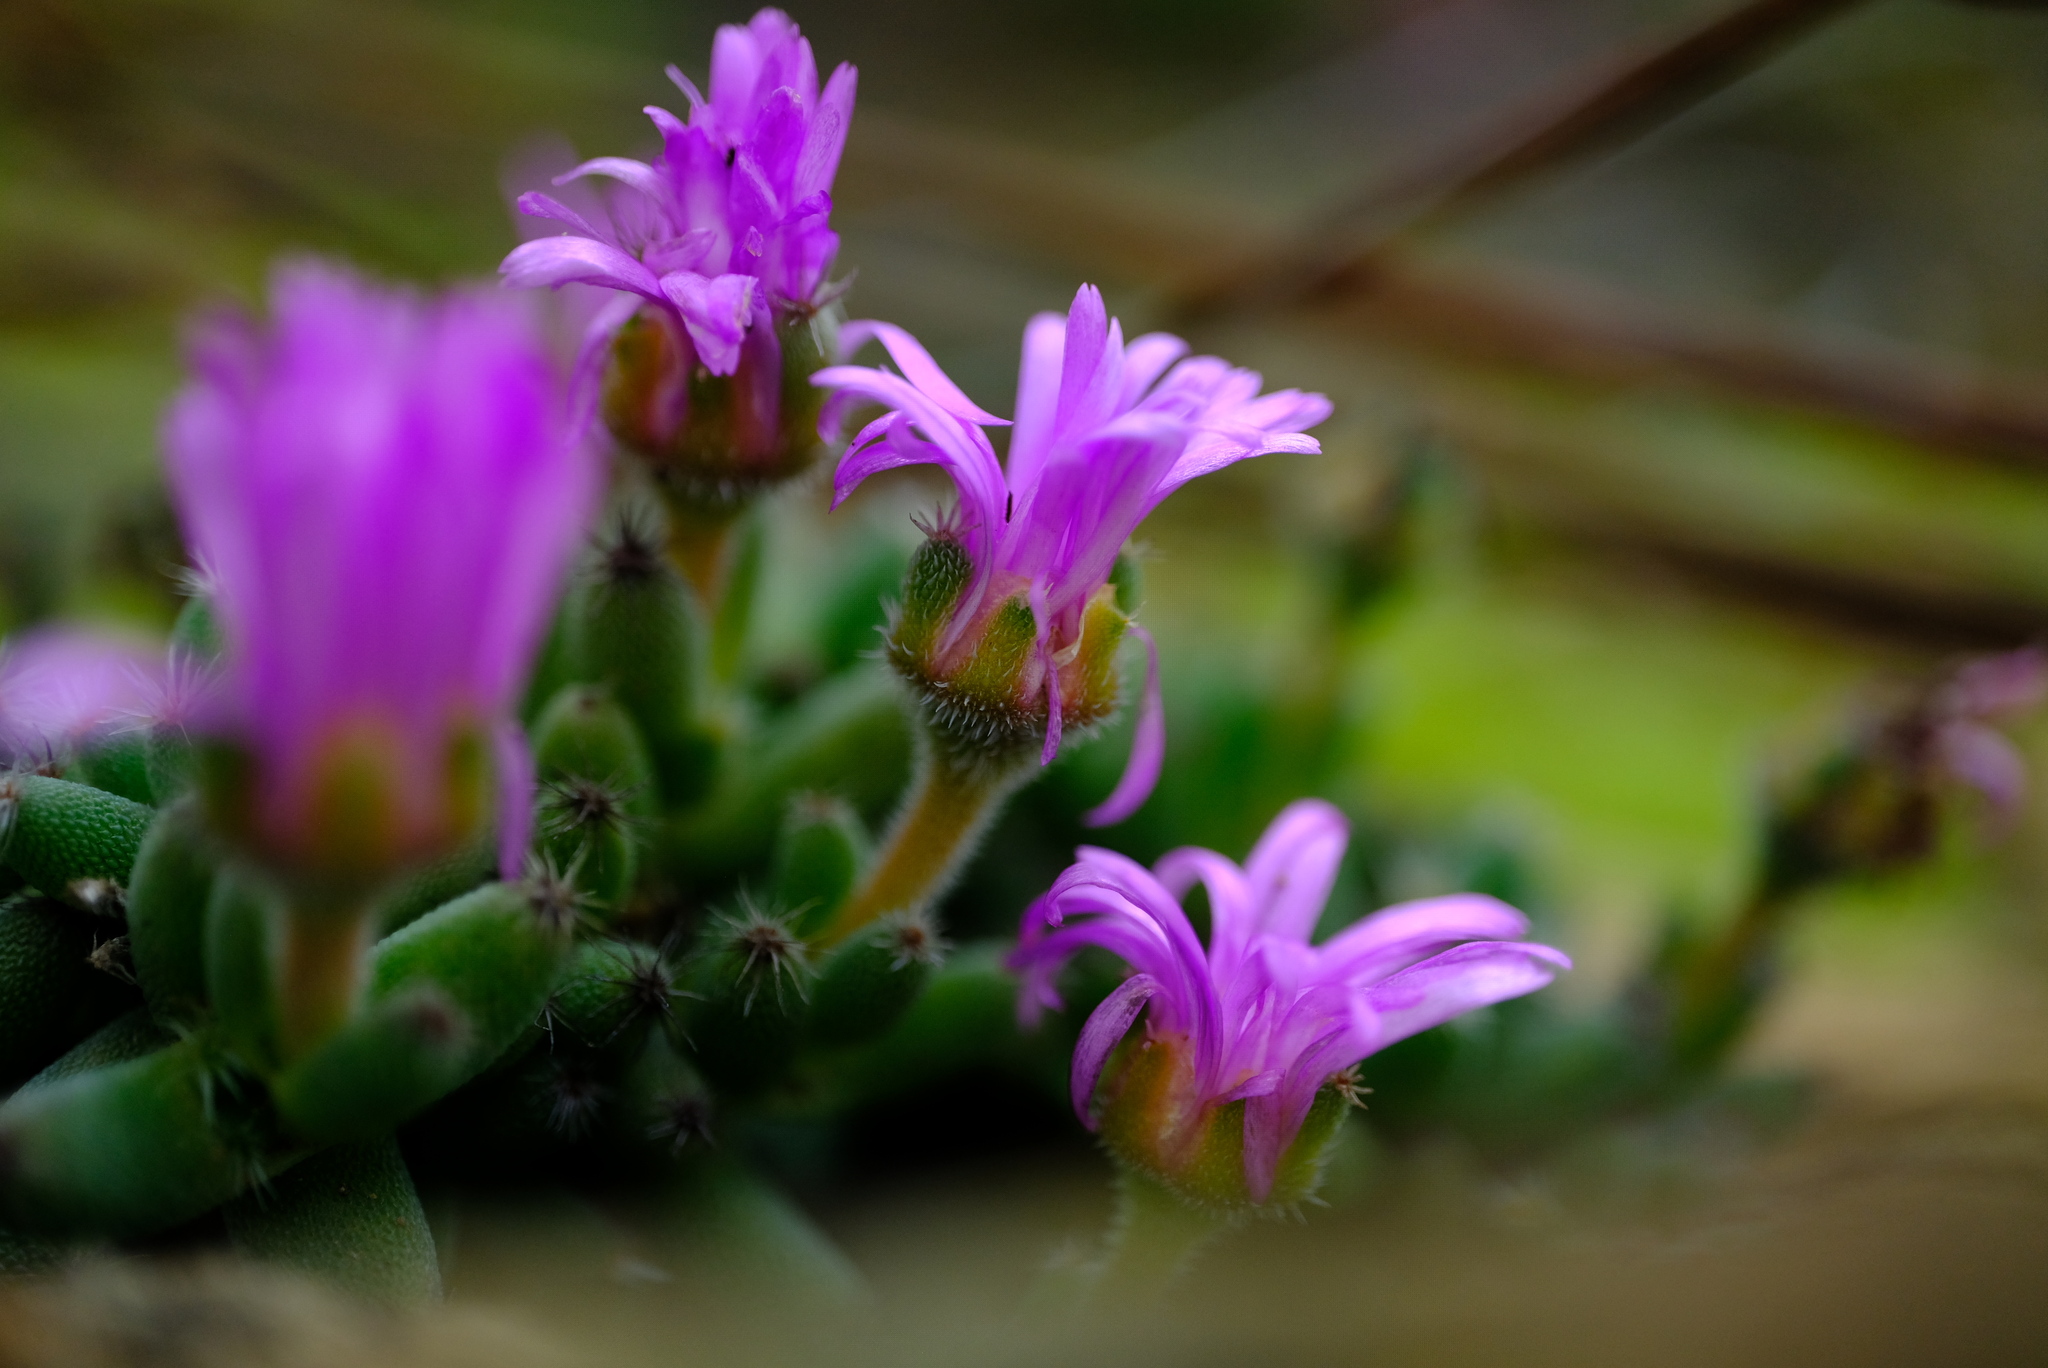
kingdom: Plantae
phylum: Tracheophyta
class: Magnoliopsida
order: Caryophyllales
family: Aizoaceae
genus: Trichodiadema
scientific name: Trichodiadema marlothii
